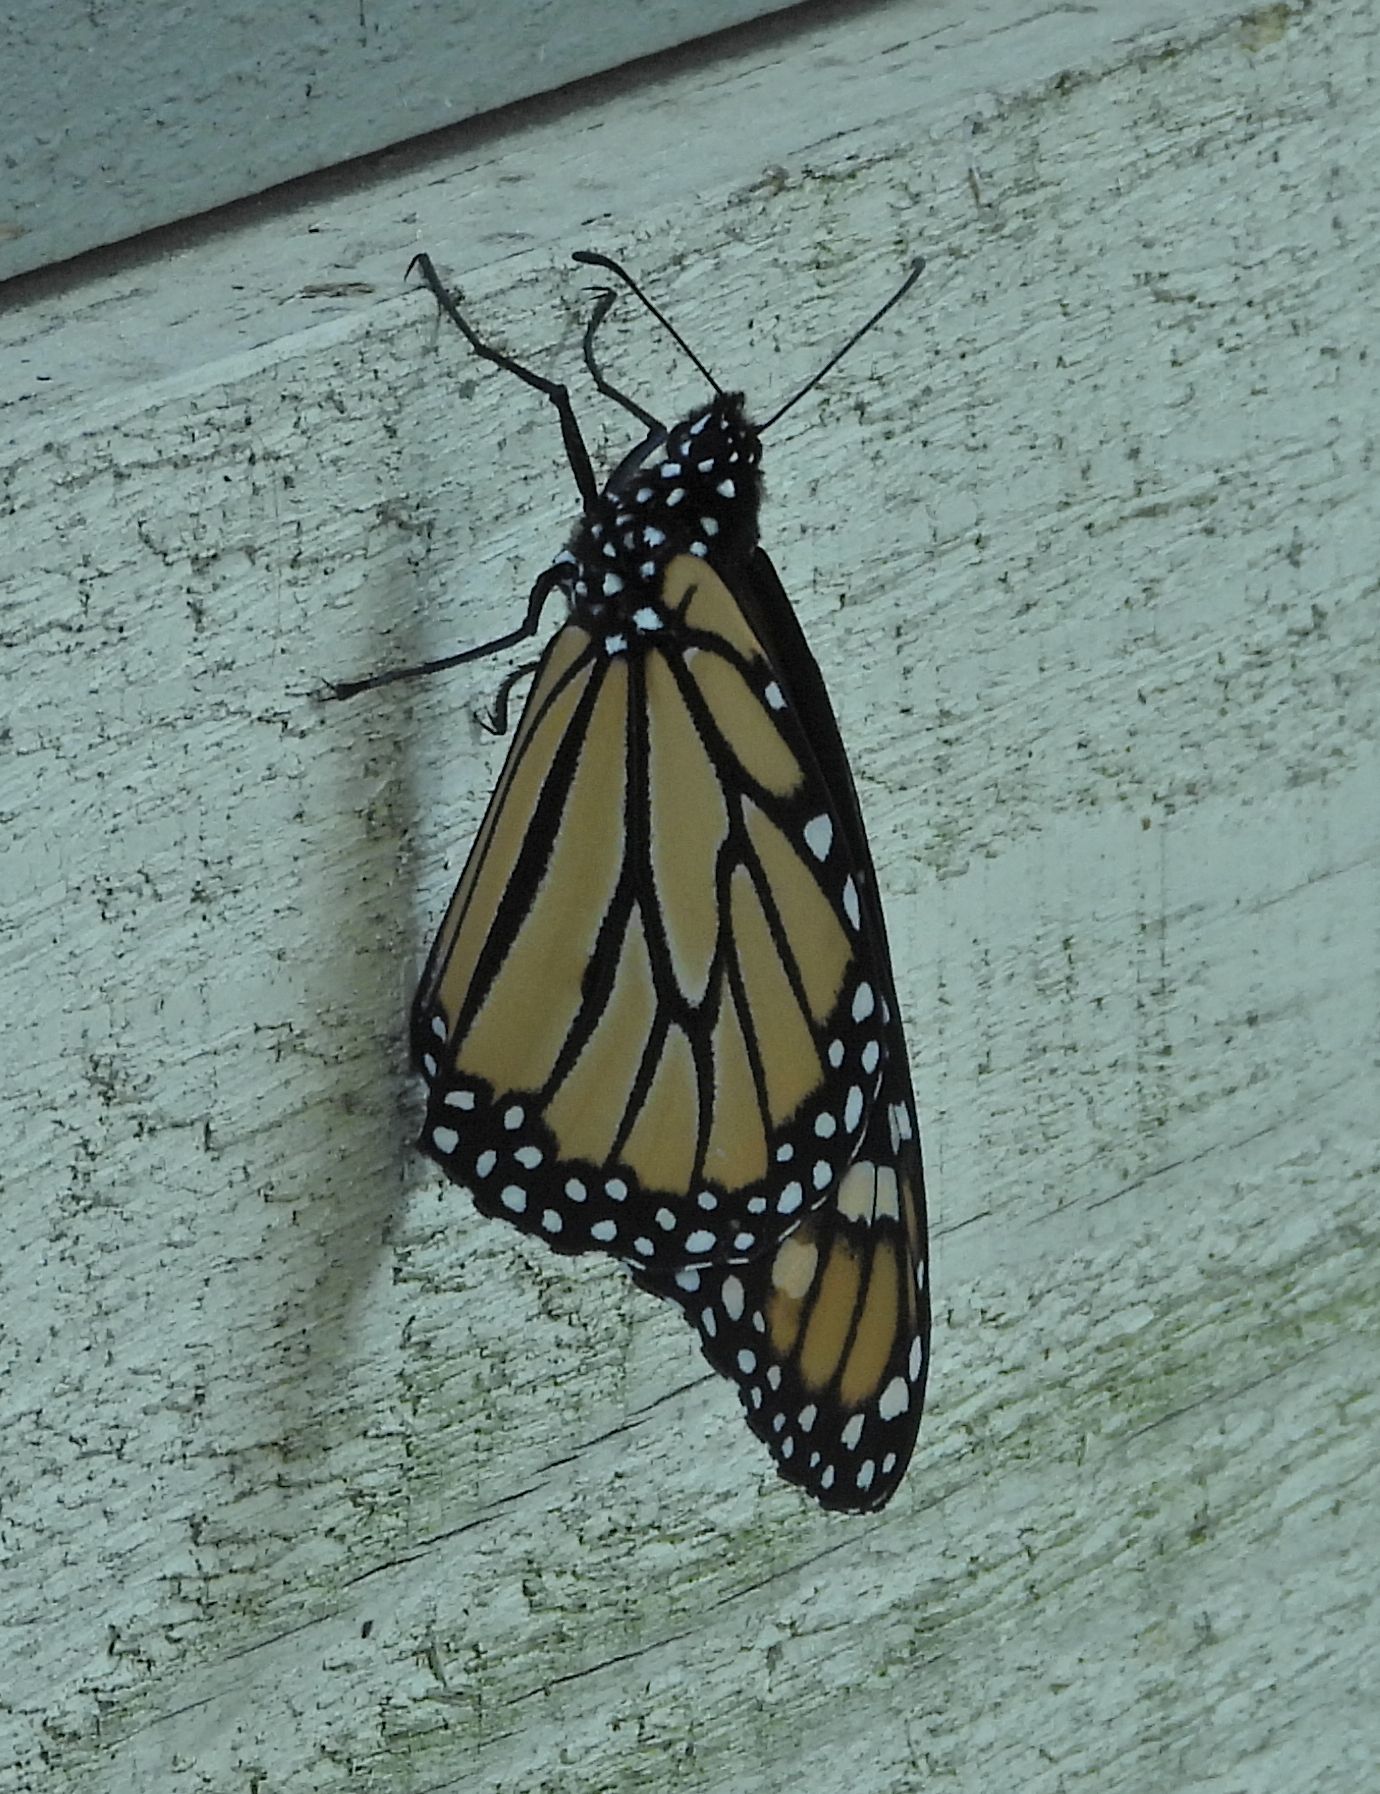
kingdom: Animalia
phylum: Arthropoda
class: Insecta
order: Lepidoptera
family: Nymphalidae
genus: Danaus
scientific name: Danaus plexippus
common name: Monarch
